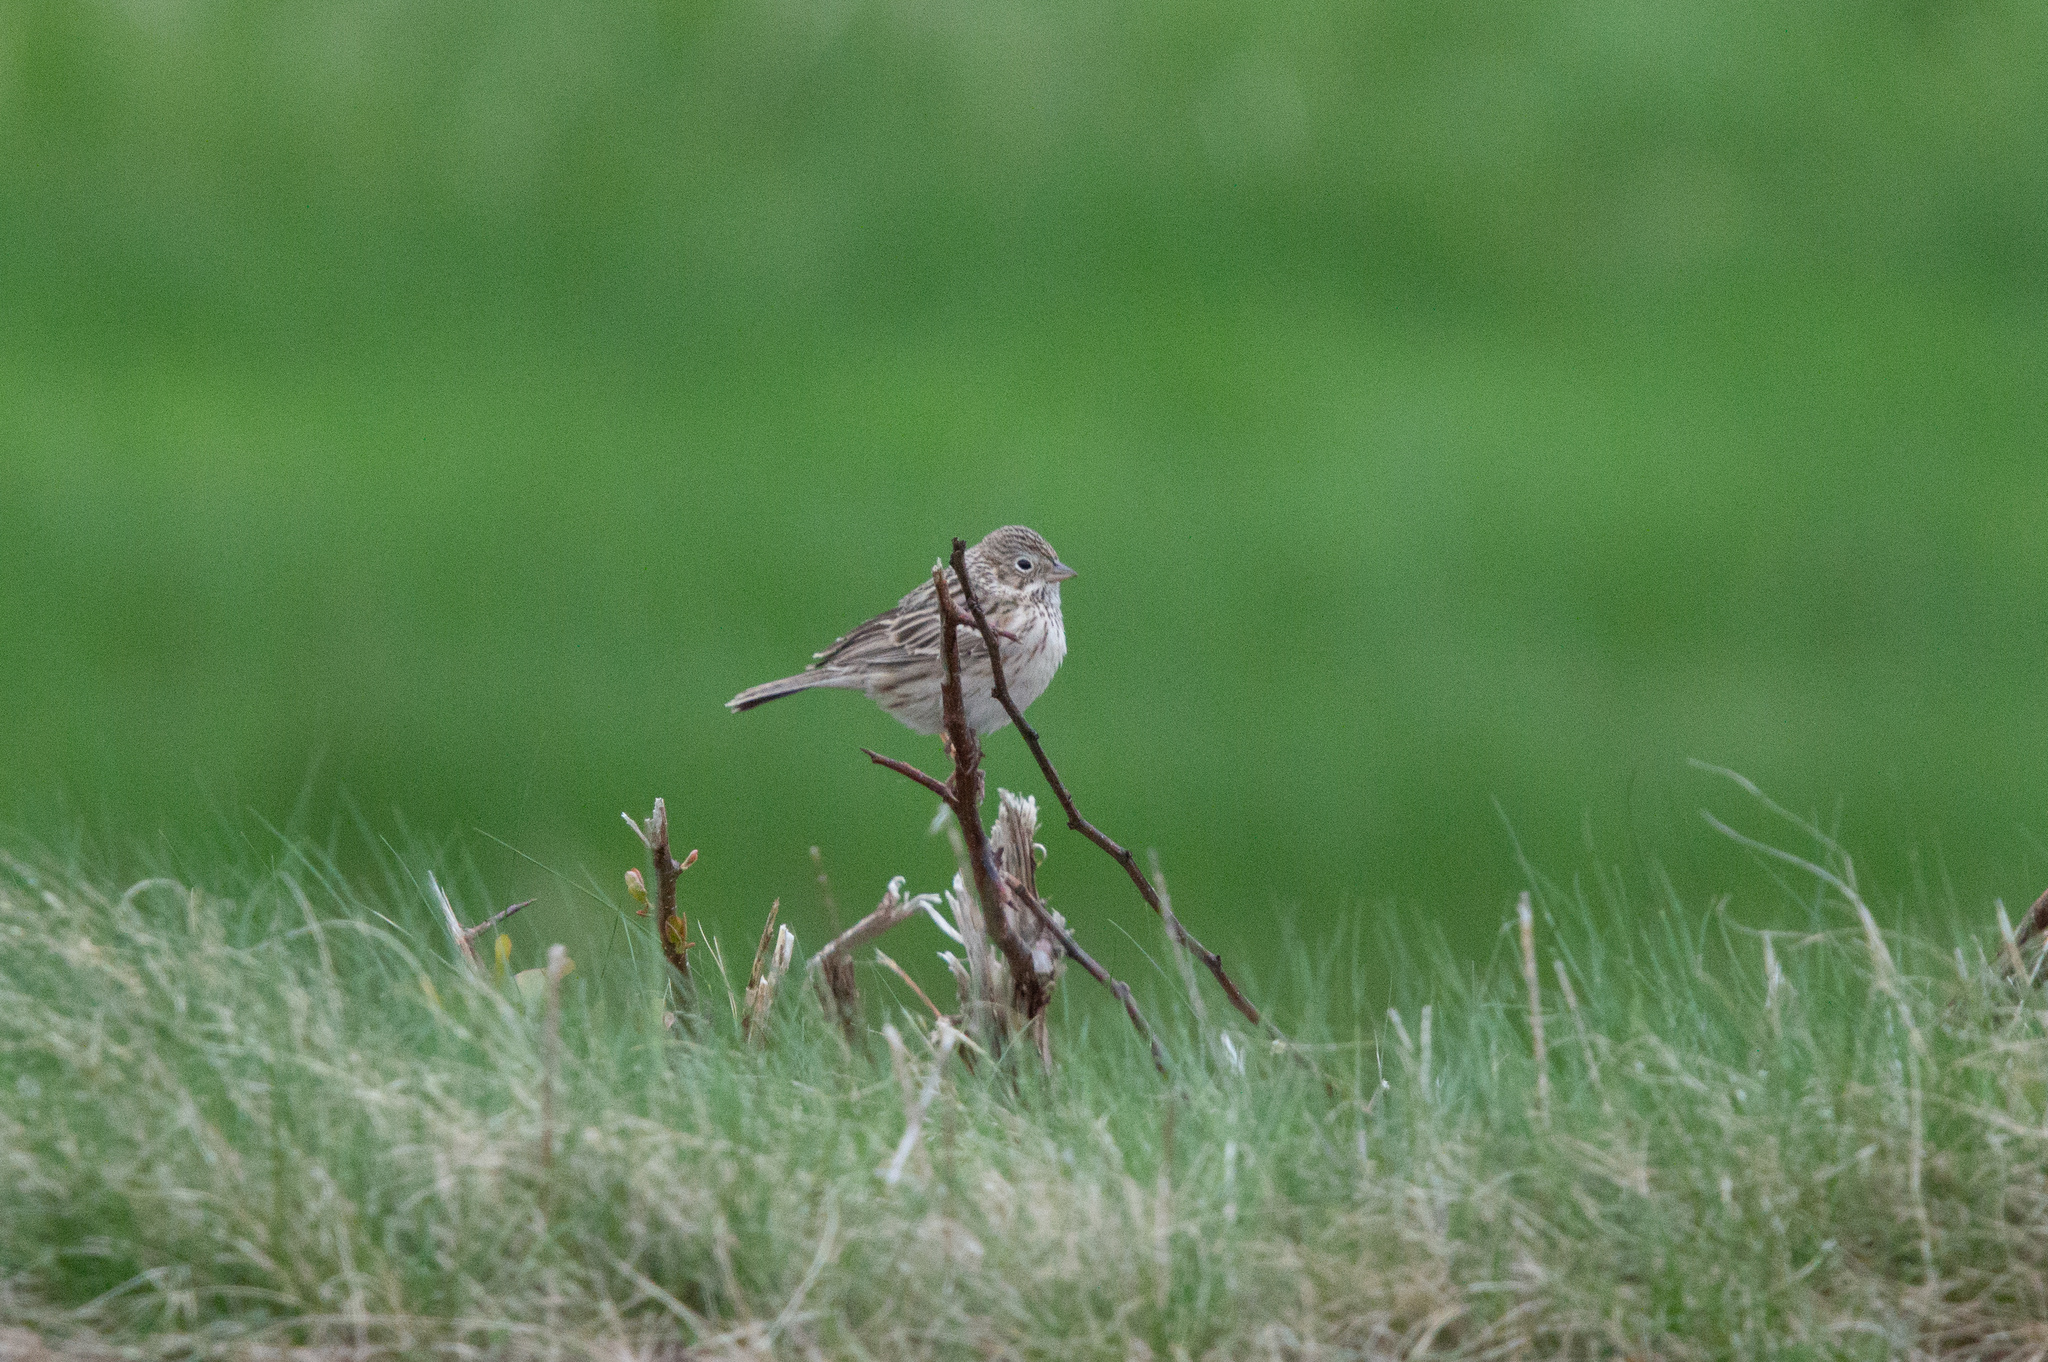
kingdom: Animalia
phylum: Chordata
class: Aves
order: Passeriformes
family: Passerellidae
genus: Pooecetes
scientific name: Pooecetes gramineus
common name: Vesper sparrow
